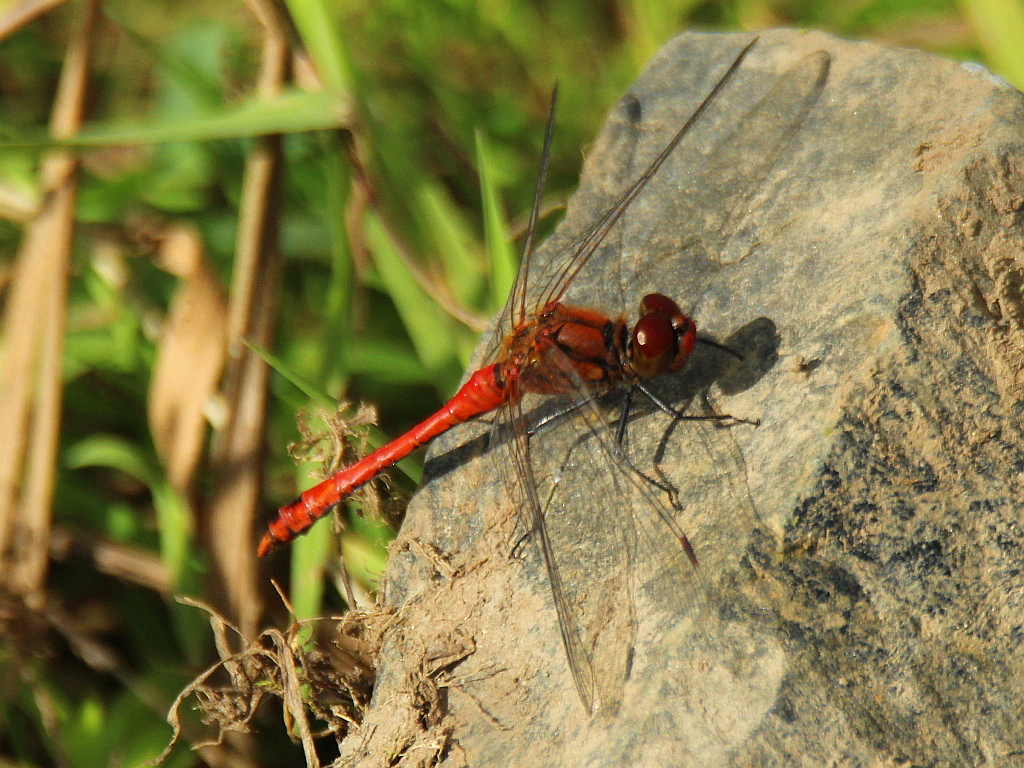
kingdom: Animalia
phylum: Arthropoda
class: Insecta
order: Odonata
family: Libellulidae
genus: Sympetrum
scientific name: Sympetrum sanguineum
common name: Ruddy darter
